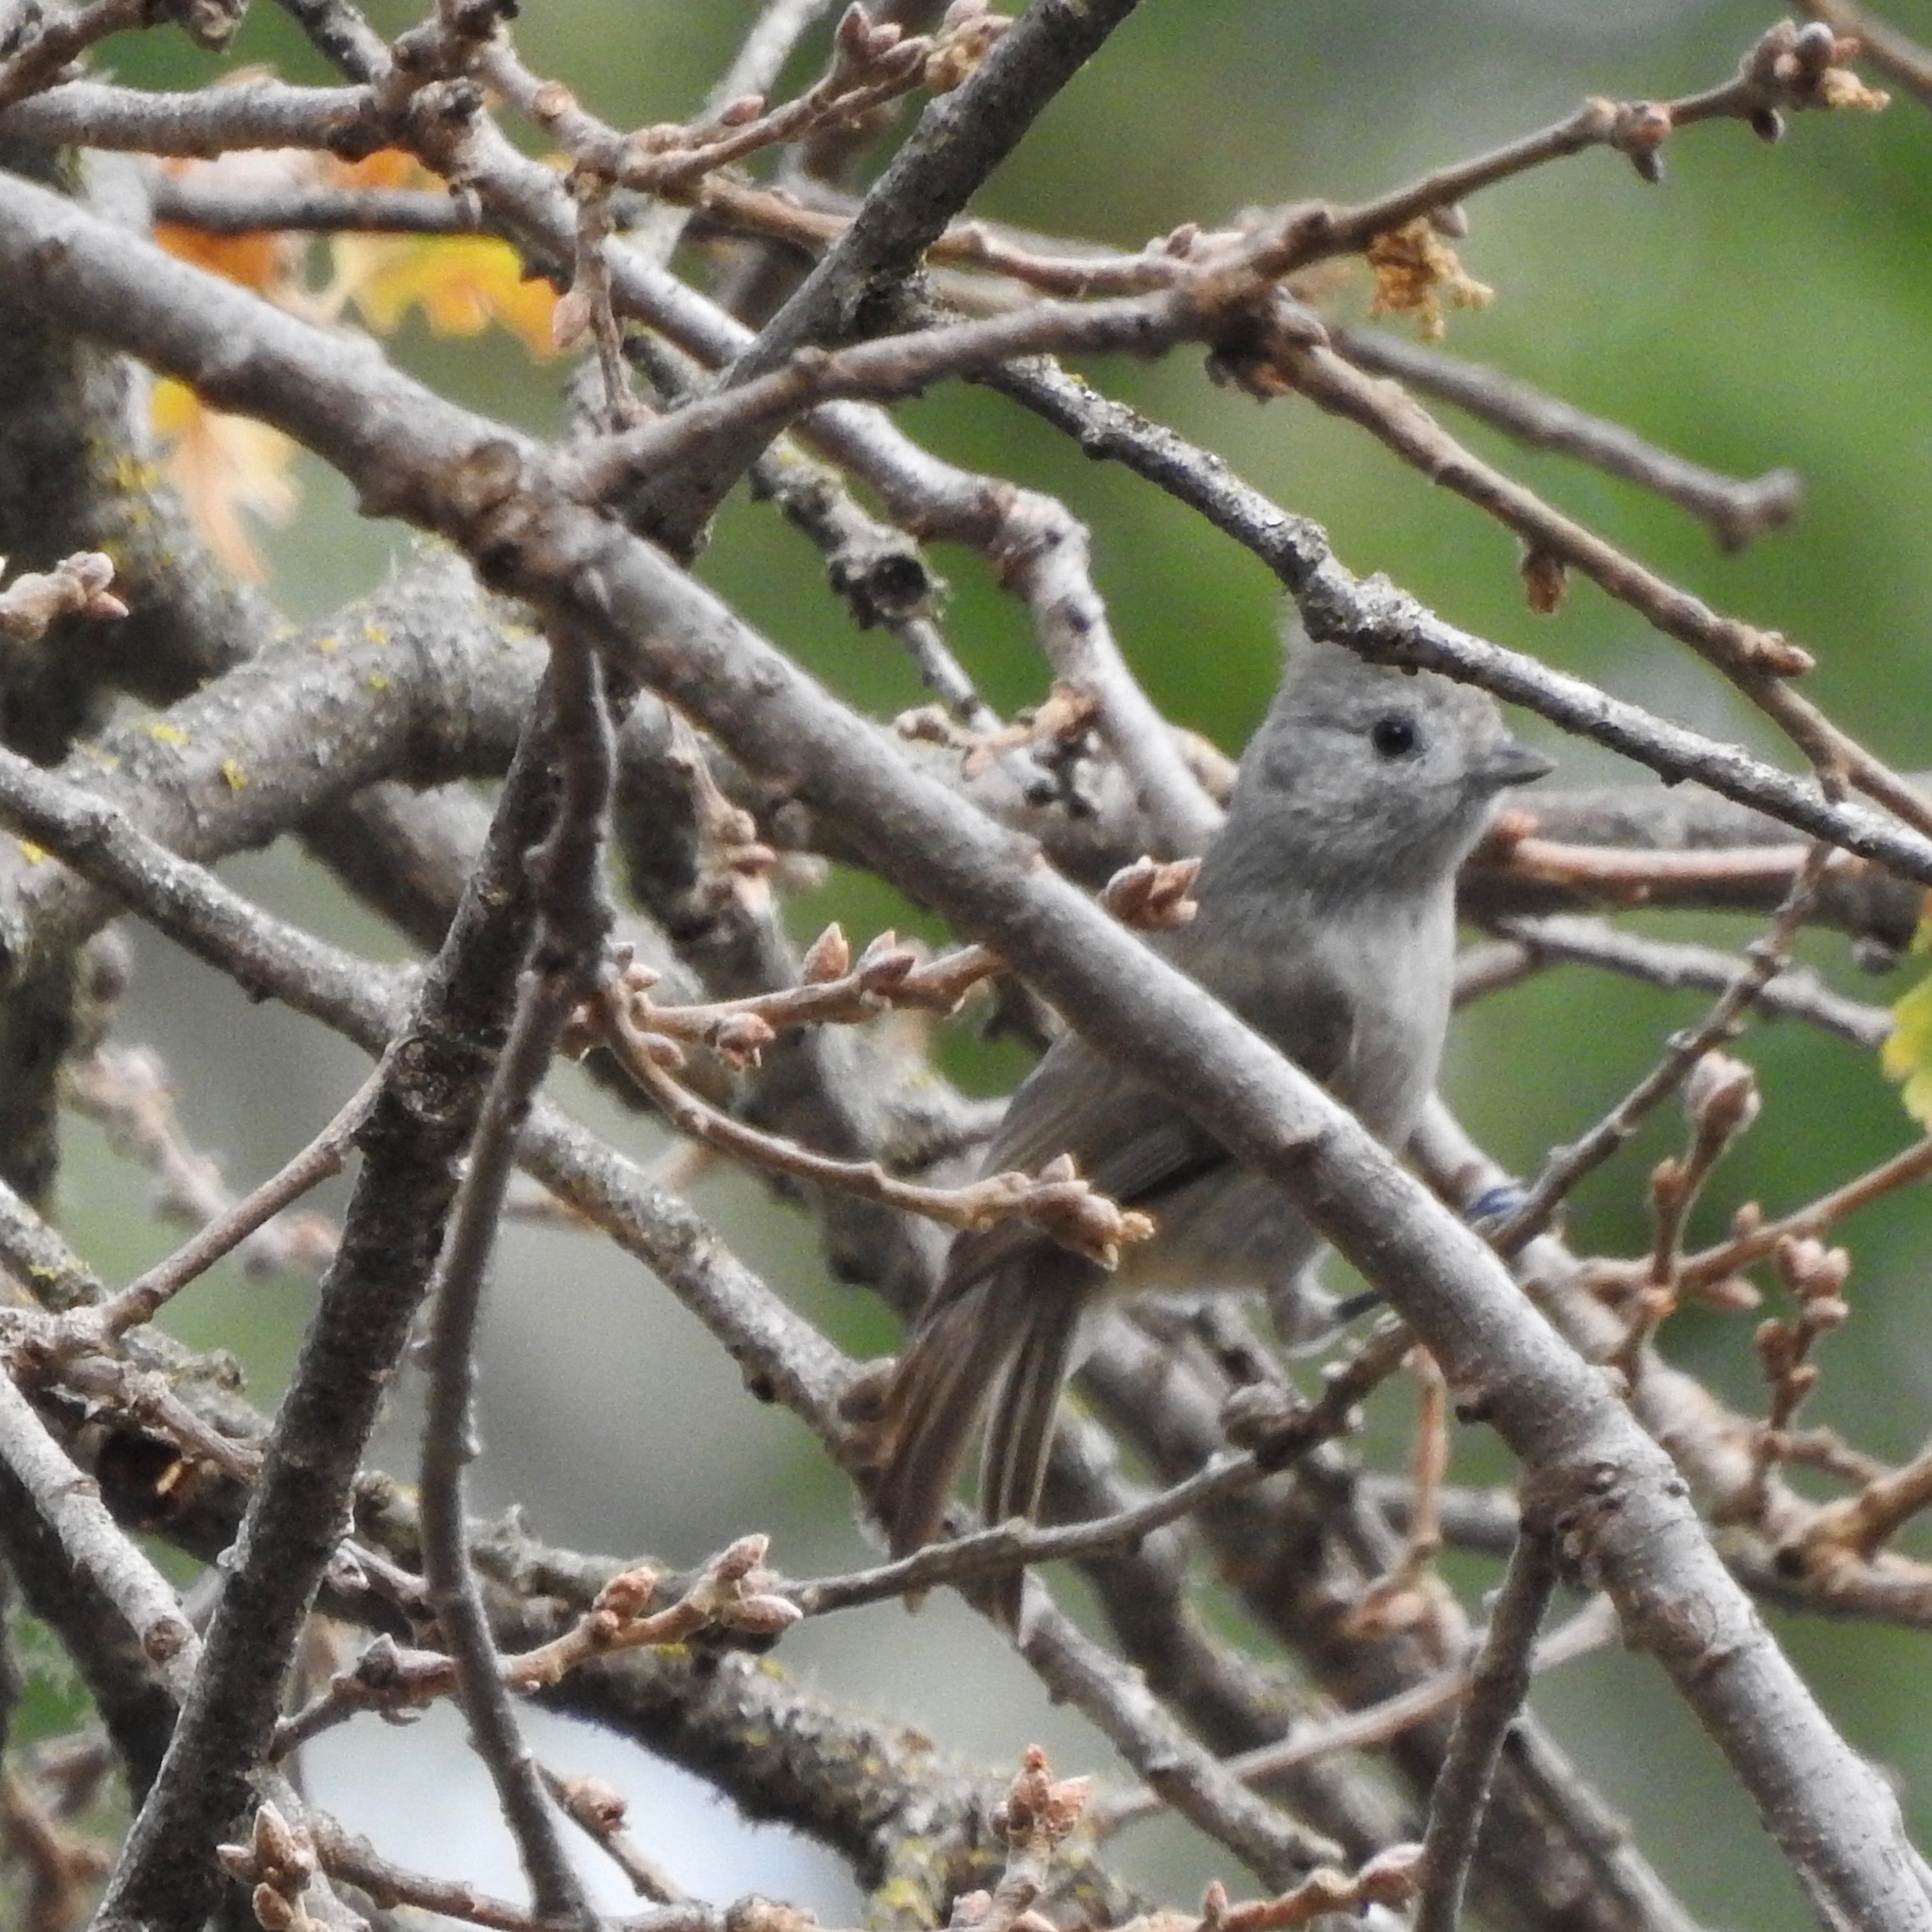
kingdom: Animalia
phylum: Chordata
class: Aves
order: Passeriformes
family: Paridae
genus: Baeolophus
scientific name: Baeolophus inornatus
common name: Oak titmouse
